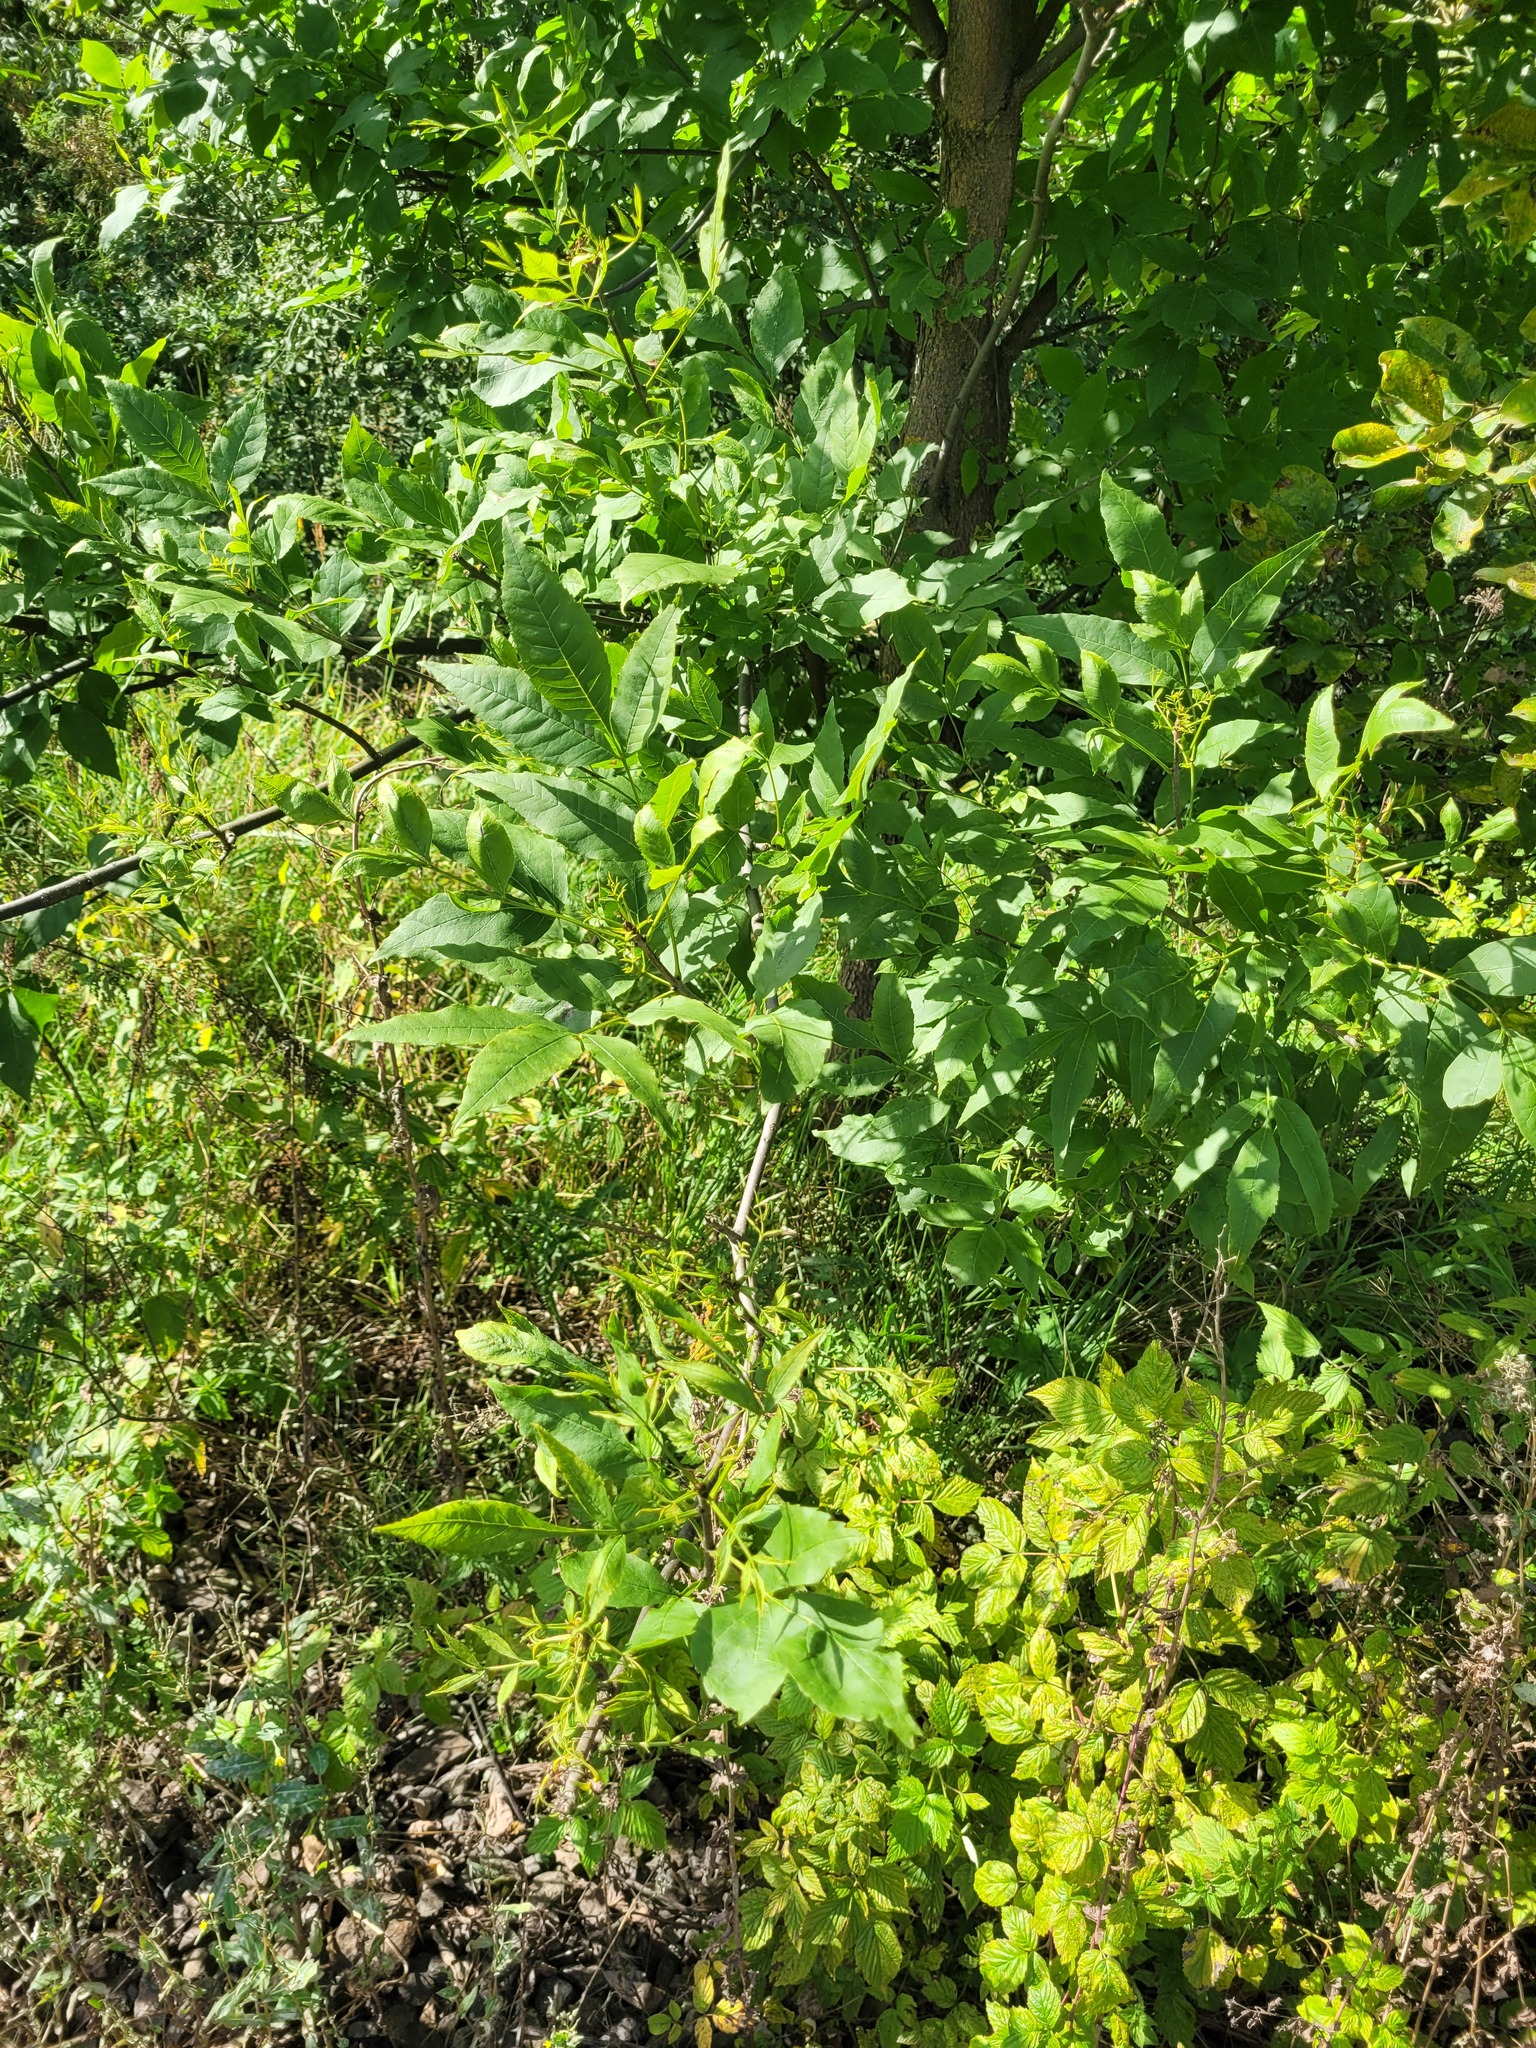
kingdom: Plantae
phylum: Tracheophyta
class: Magnoliopsida
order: Lamiales
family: Oleaceae
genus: Fraxinus
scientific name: Fraxinus pennsylvanica
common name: Green ash
